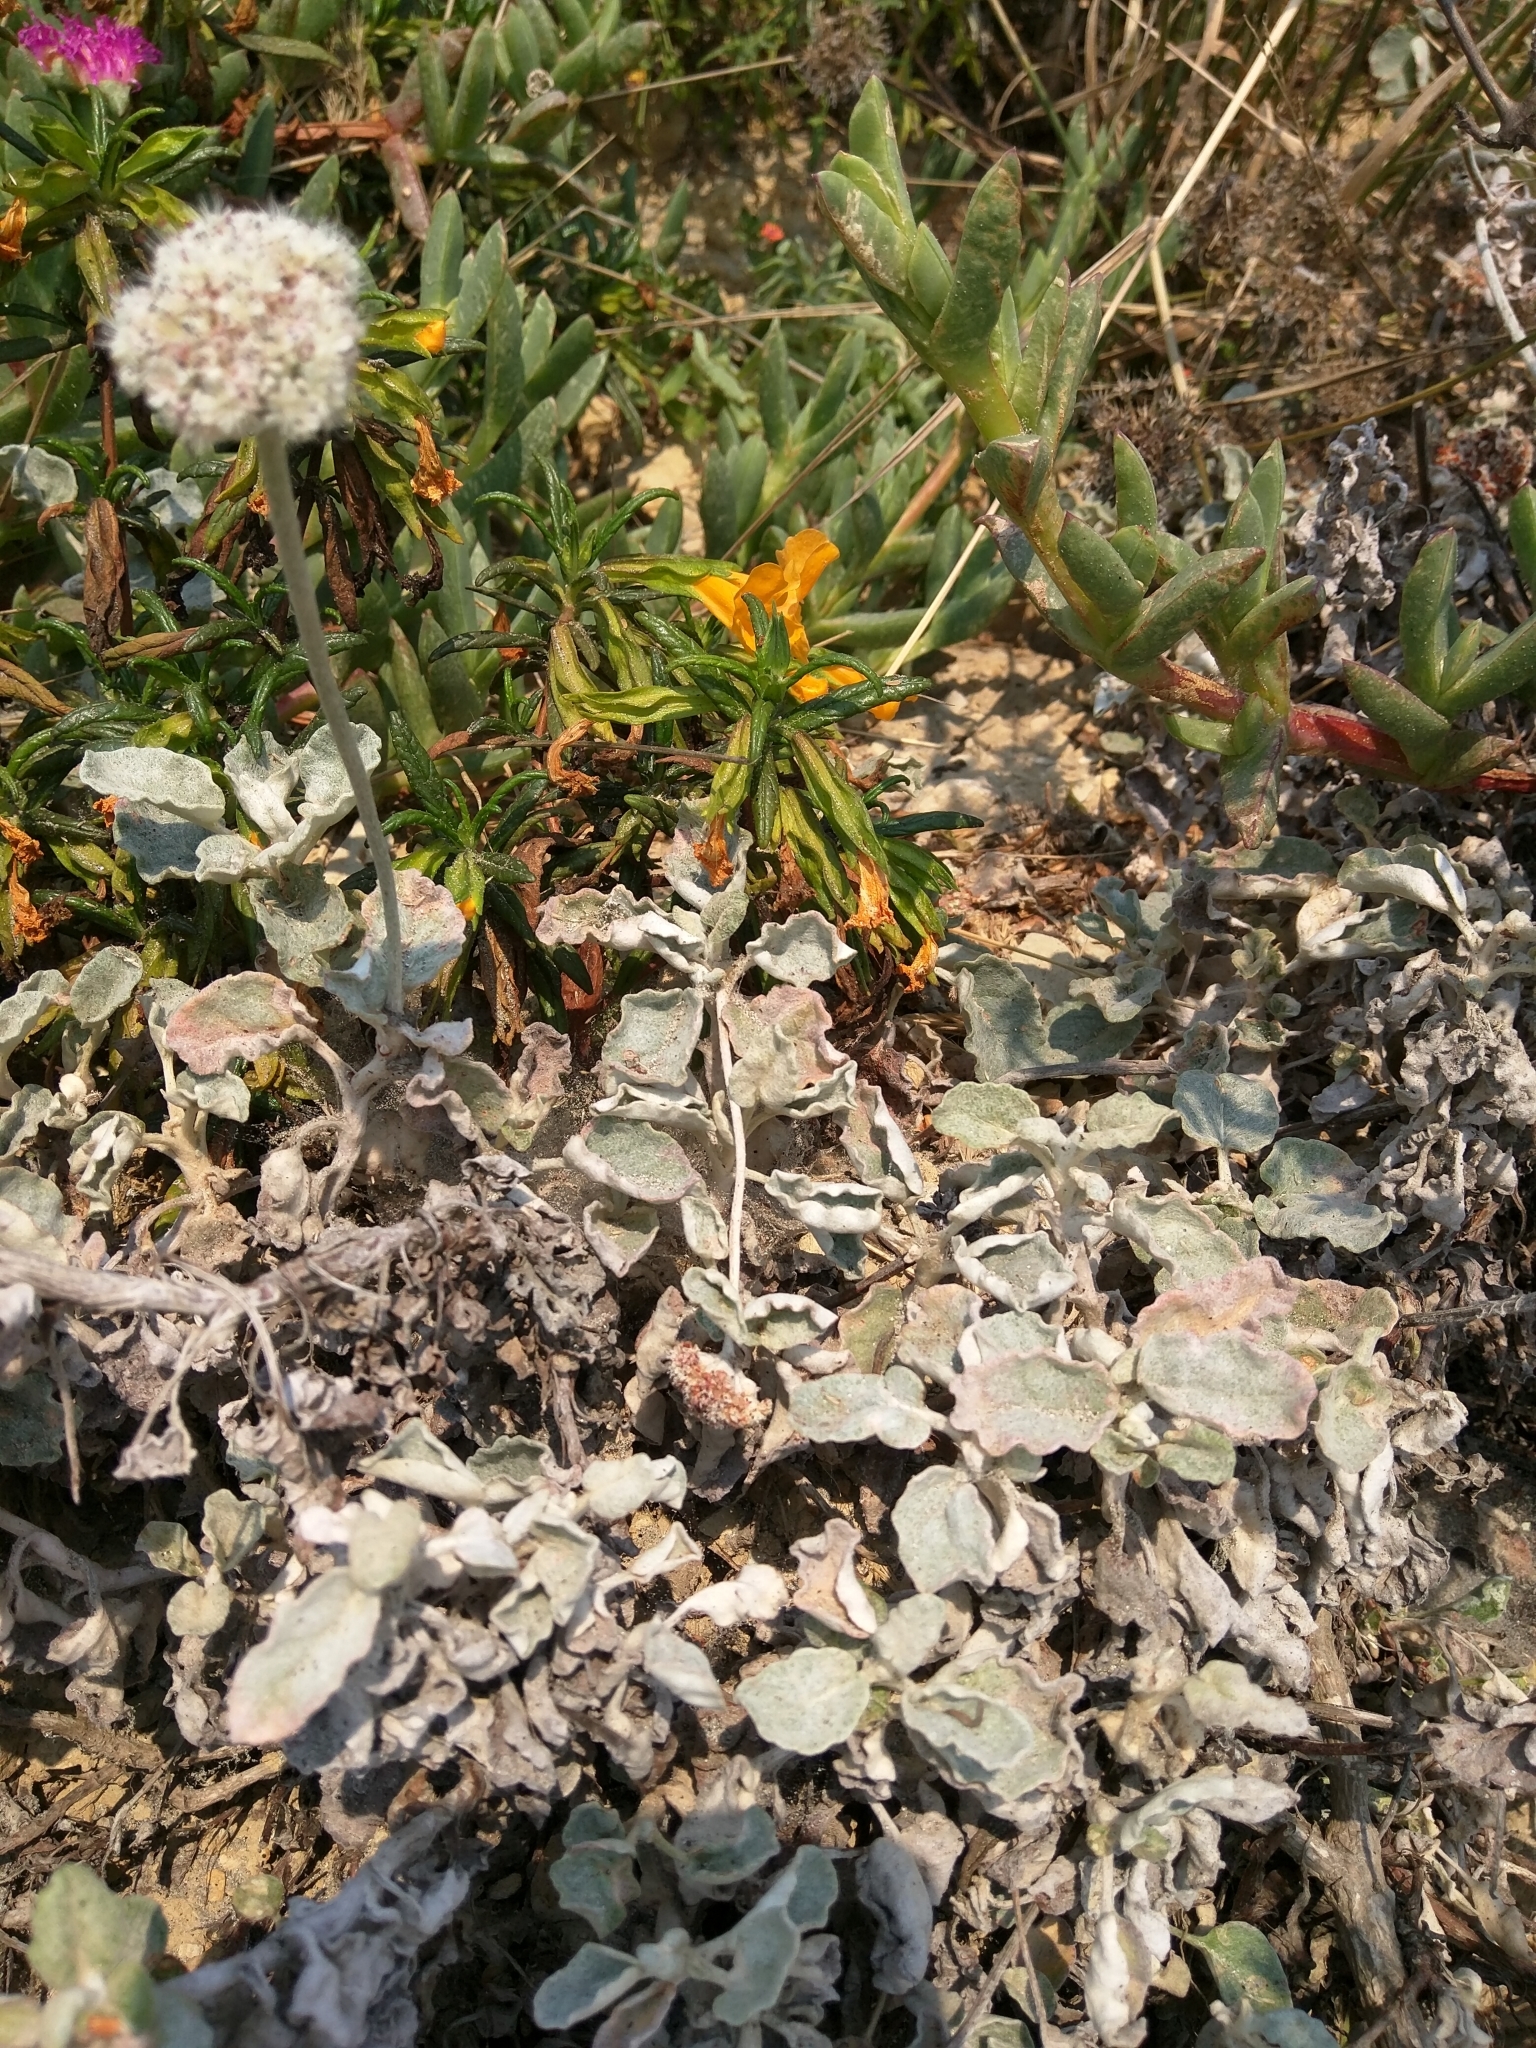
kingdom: Plantae
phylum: Tracheophyta
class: Magnoliopsida
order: Caryophyllales
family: Polygonaceae
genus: Eriogonum
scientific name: Eriogonum latifolium
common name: Seaside wild buckwheat
